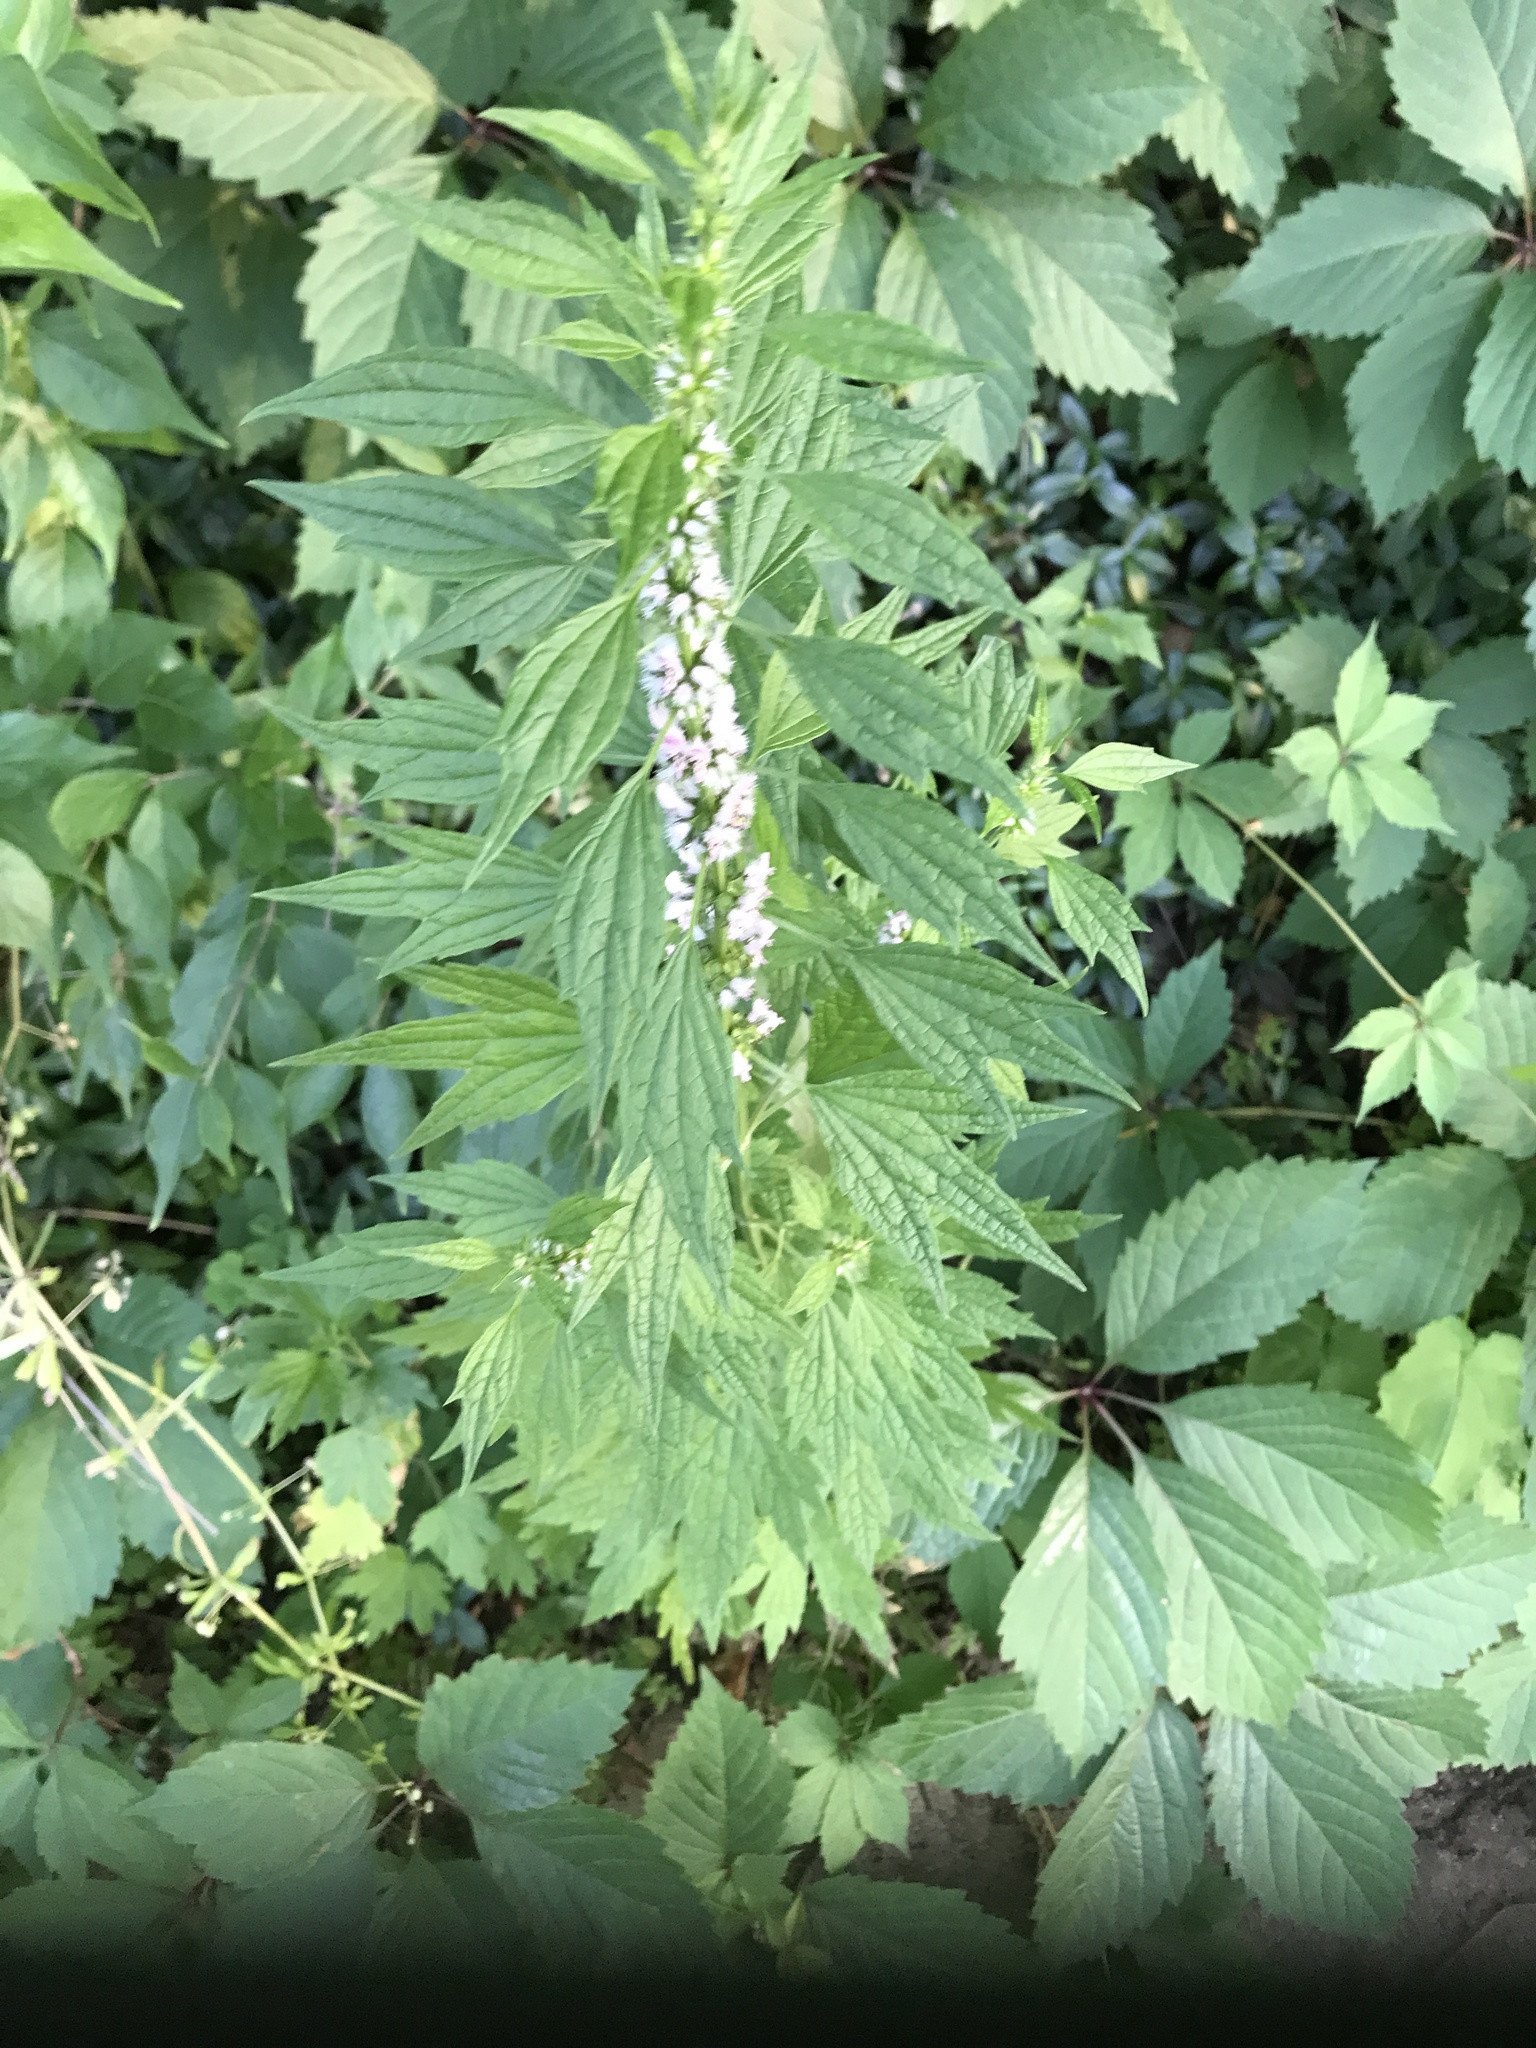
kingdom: Plantae
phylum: Tracheophyta
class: Magnoliopsida
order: Lamiales
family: Lamiaceae
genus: Leonurus
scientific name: Leonurus cardiaca
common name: Motherwort
